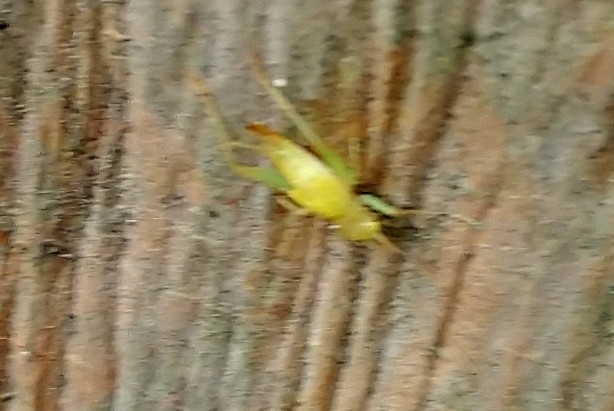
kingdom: Animalia
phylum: Arthropoda
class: Insecta
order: Orthoptera
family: Trigonidiidae
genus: Cyrtoxipha
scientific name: Cyrtoxipha columbiana
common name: Columbian trig
